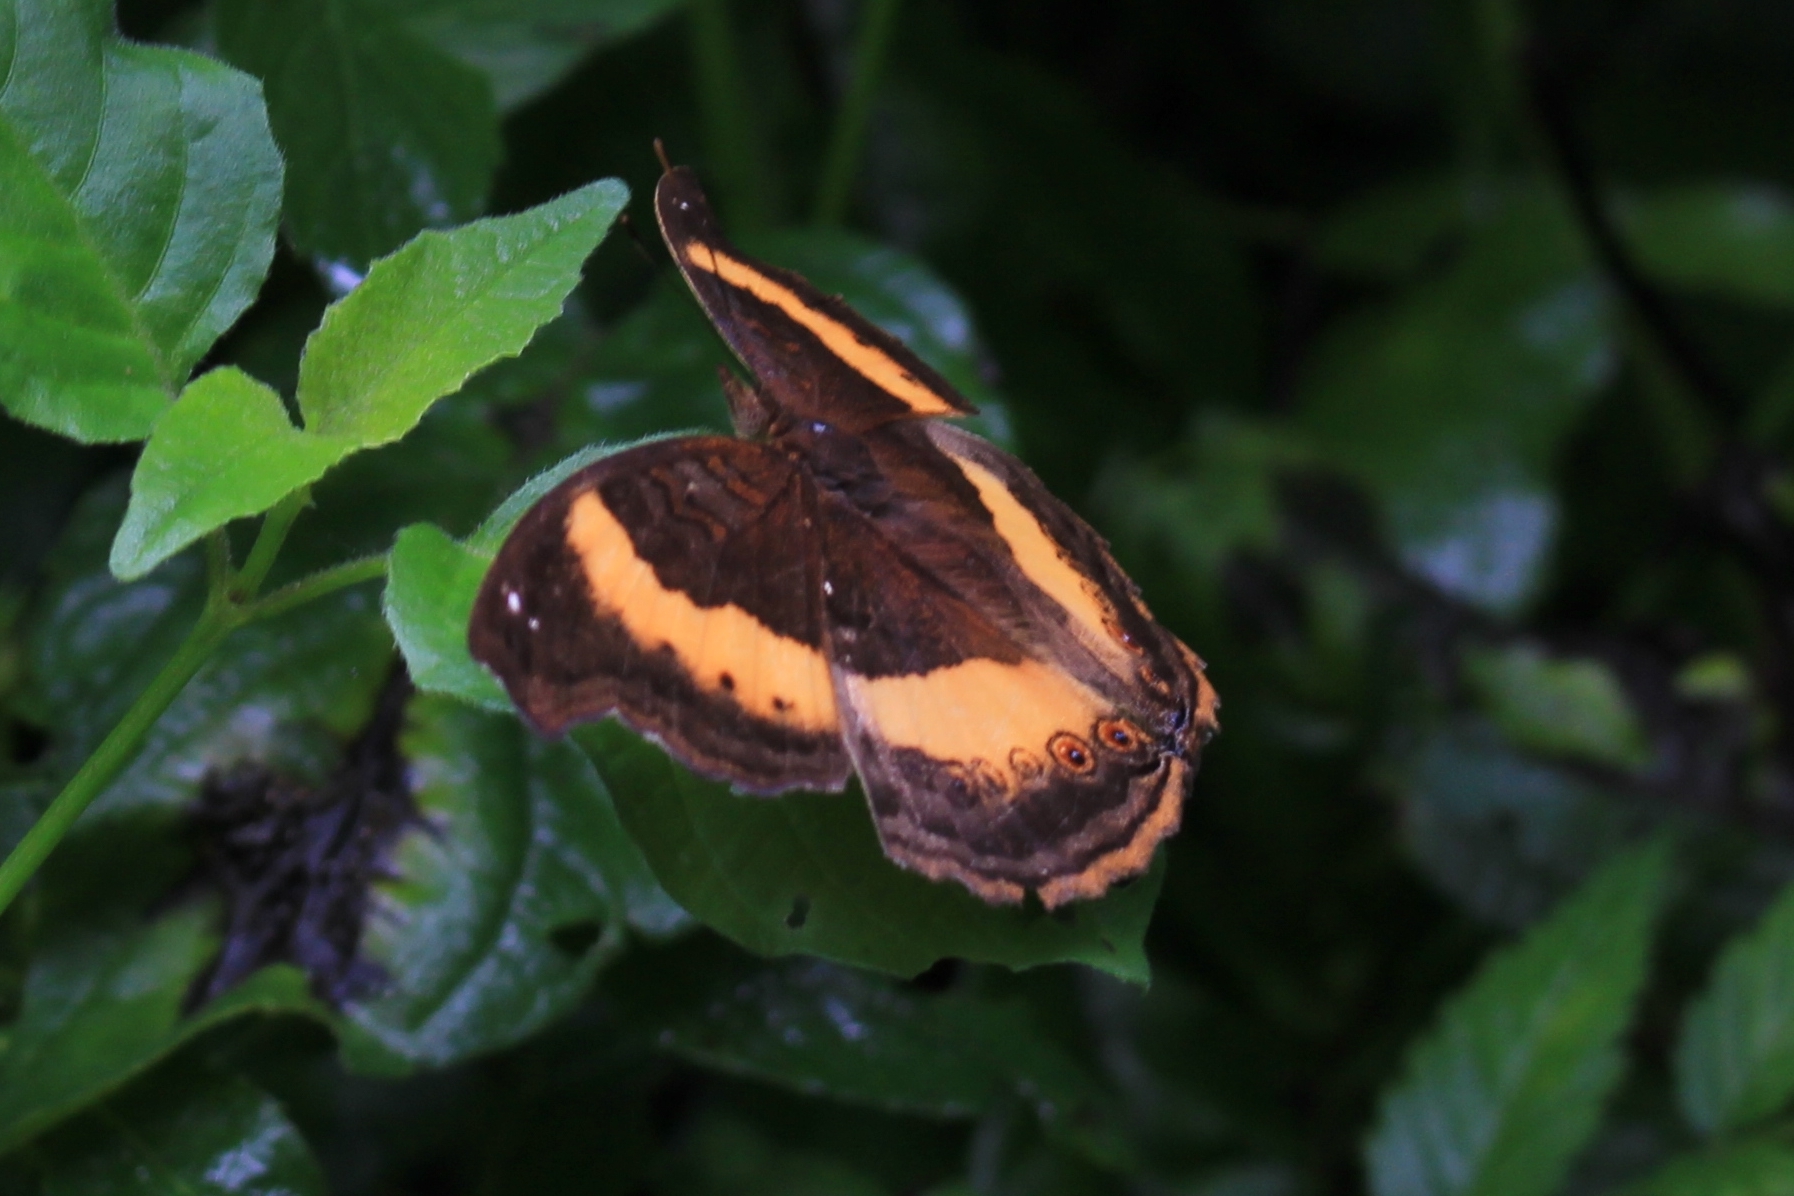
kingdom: Animalia
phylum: Arthropoda
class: Insecta
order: Lepidoptera
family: Nymphalidae
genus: Junonia
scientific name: Junonia terea
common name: Soldier pansy
